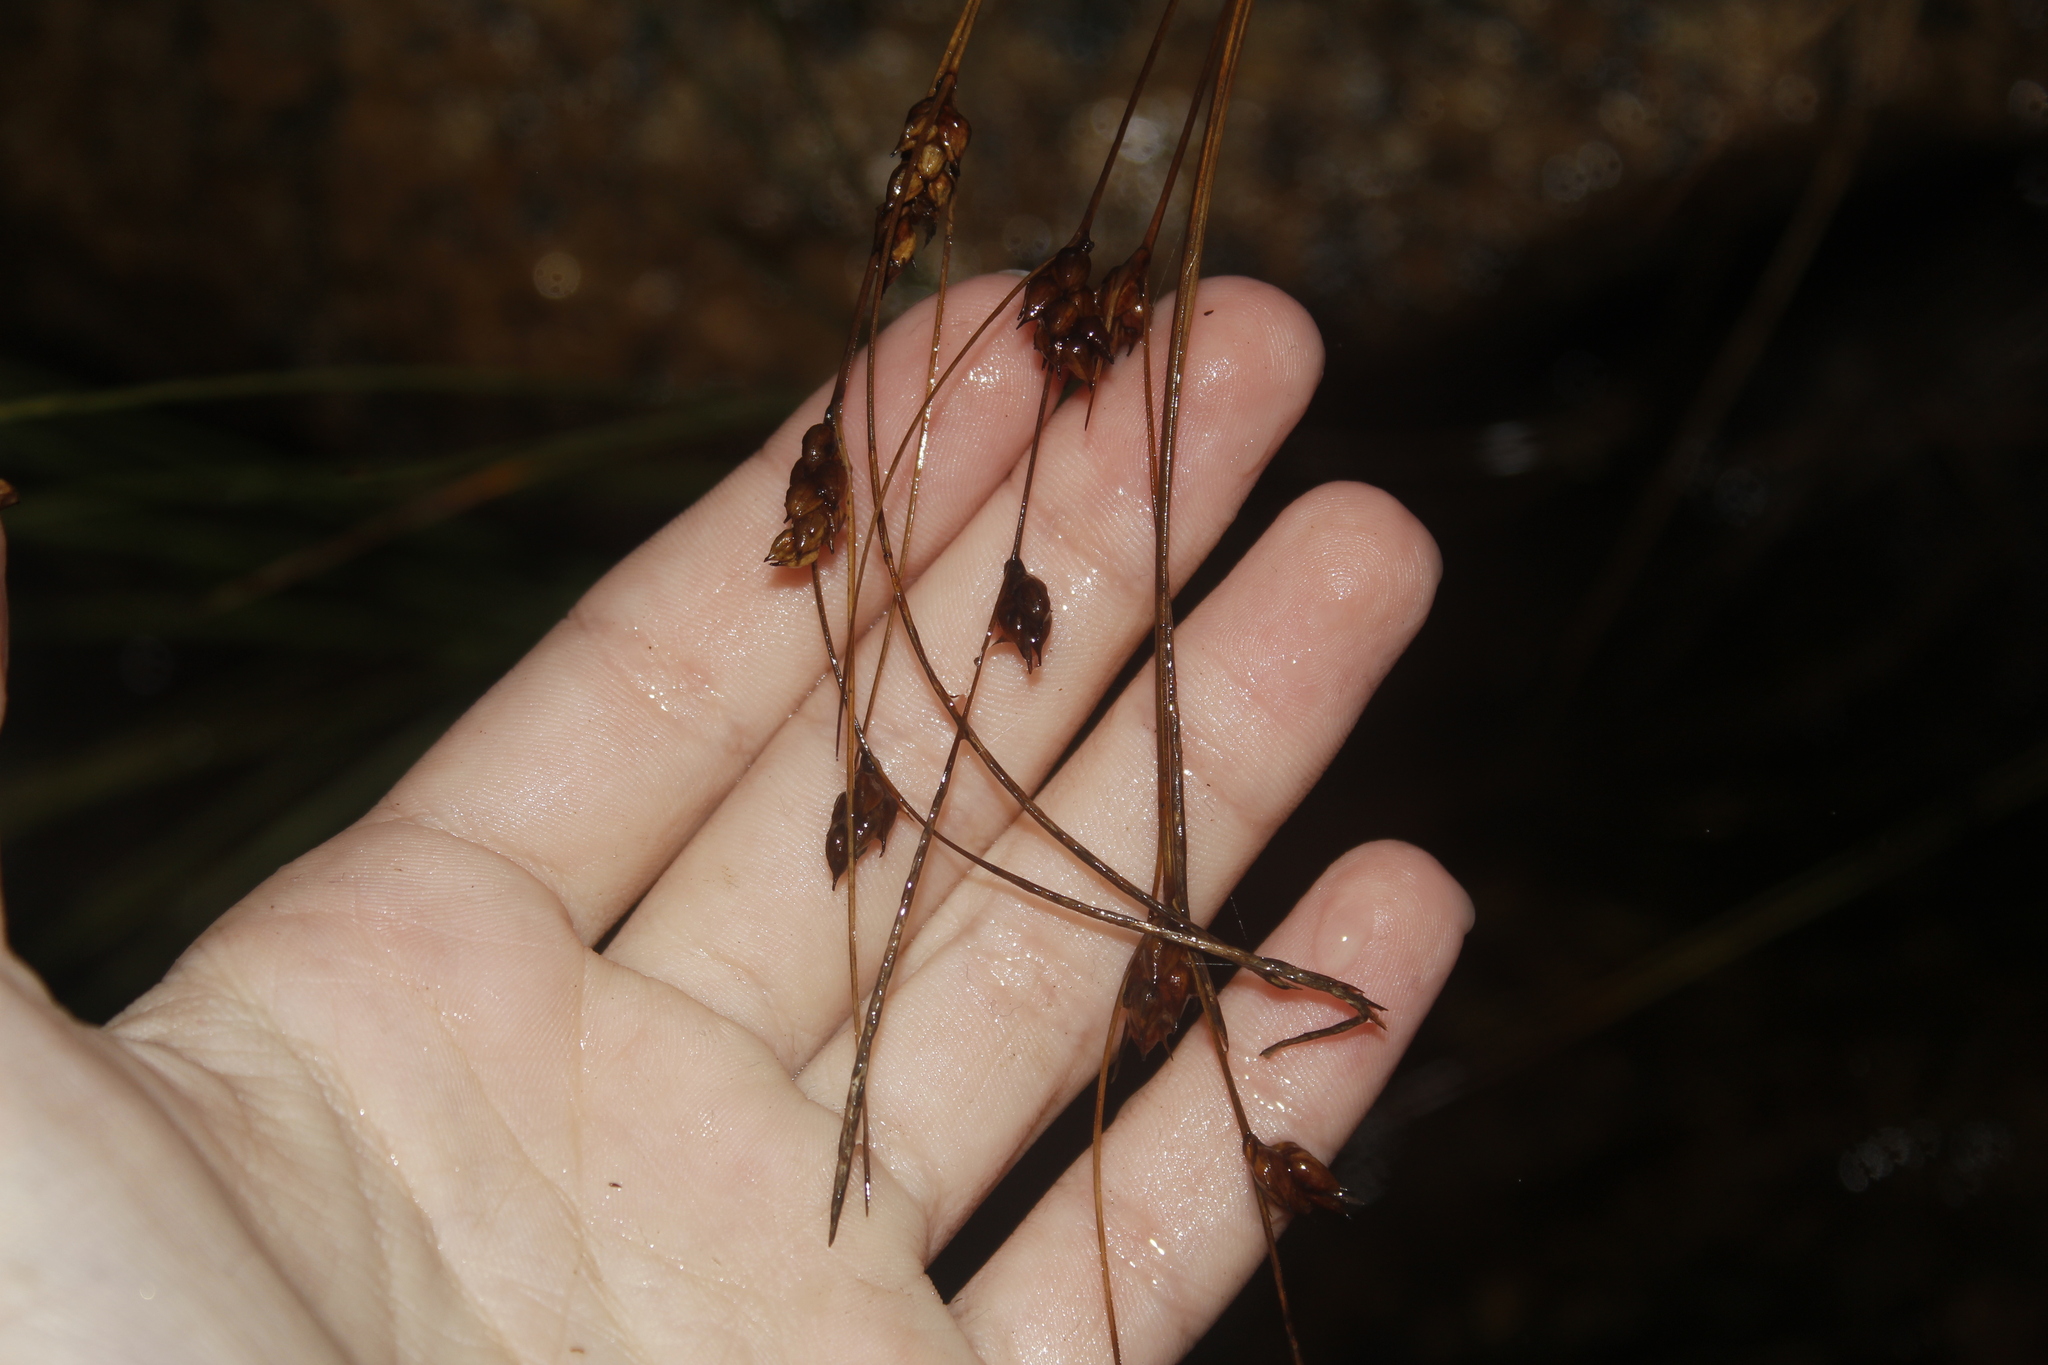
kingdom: Plantae
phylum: Tracheophyta
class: Liliopsida
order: Poales
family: Cyperaceae
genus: Carex
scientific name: Carex oligosperma
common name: Few-seed sedge
